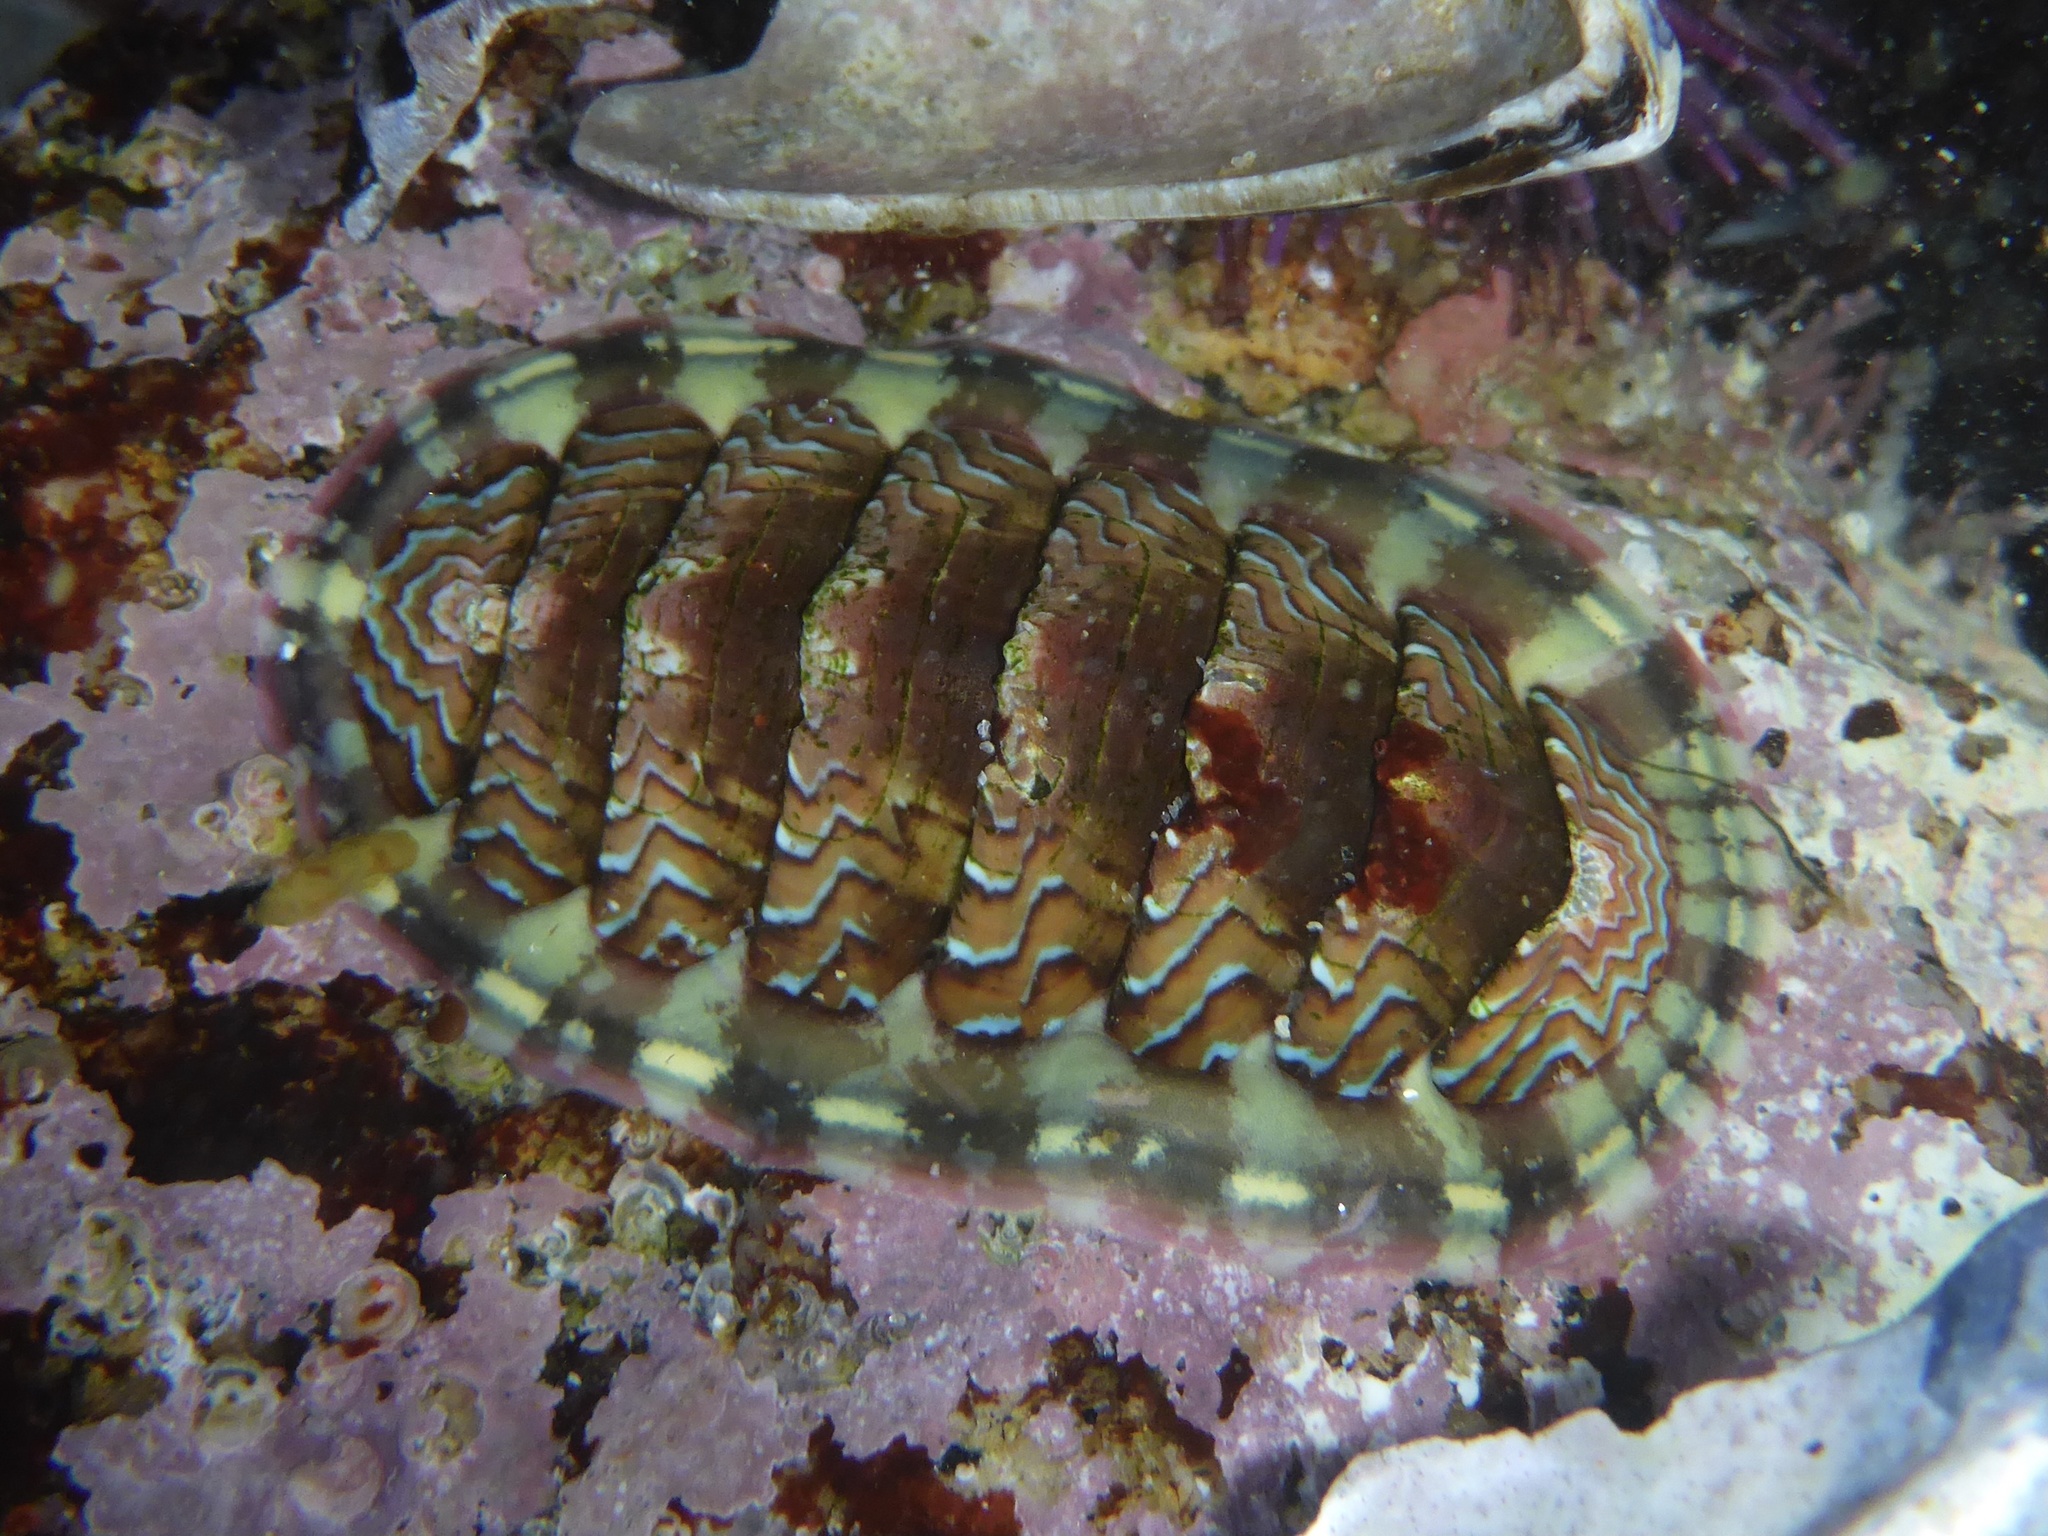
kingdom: Animalia
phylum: Mollusca
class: Polyplacophora
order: Chitonida
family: Tonicellidae
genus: Tonicella
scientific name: Tonicella lokii
